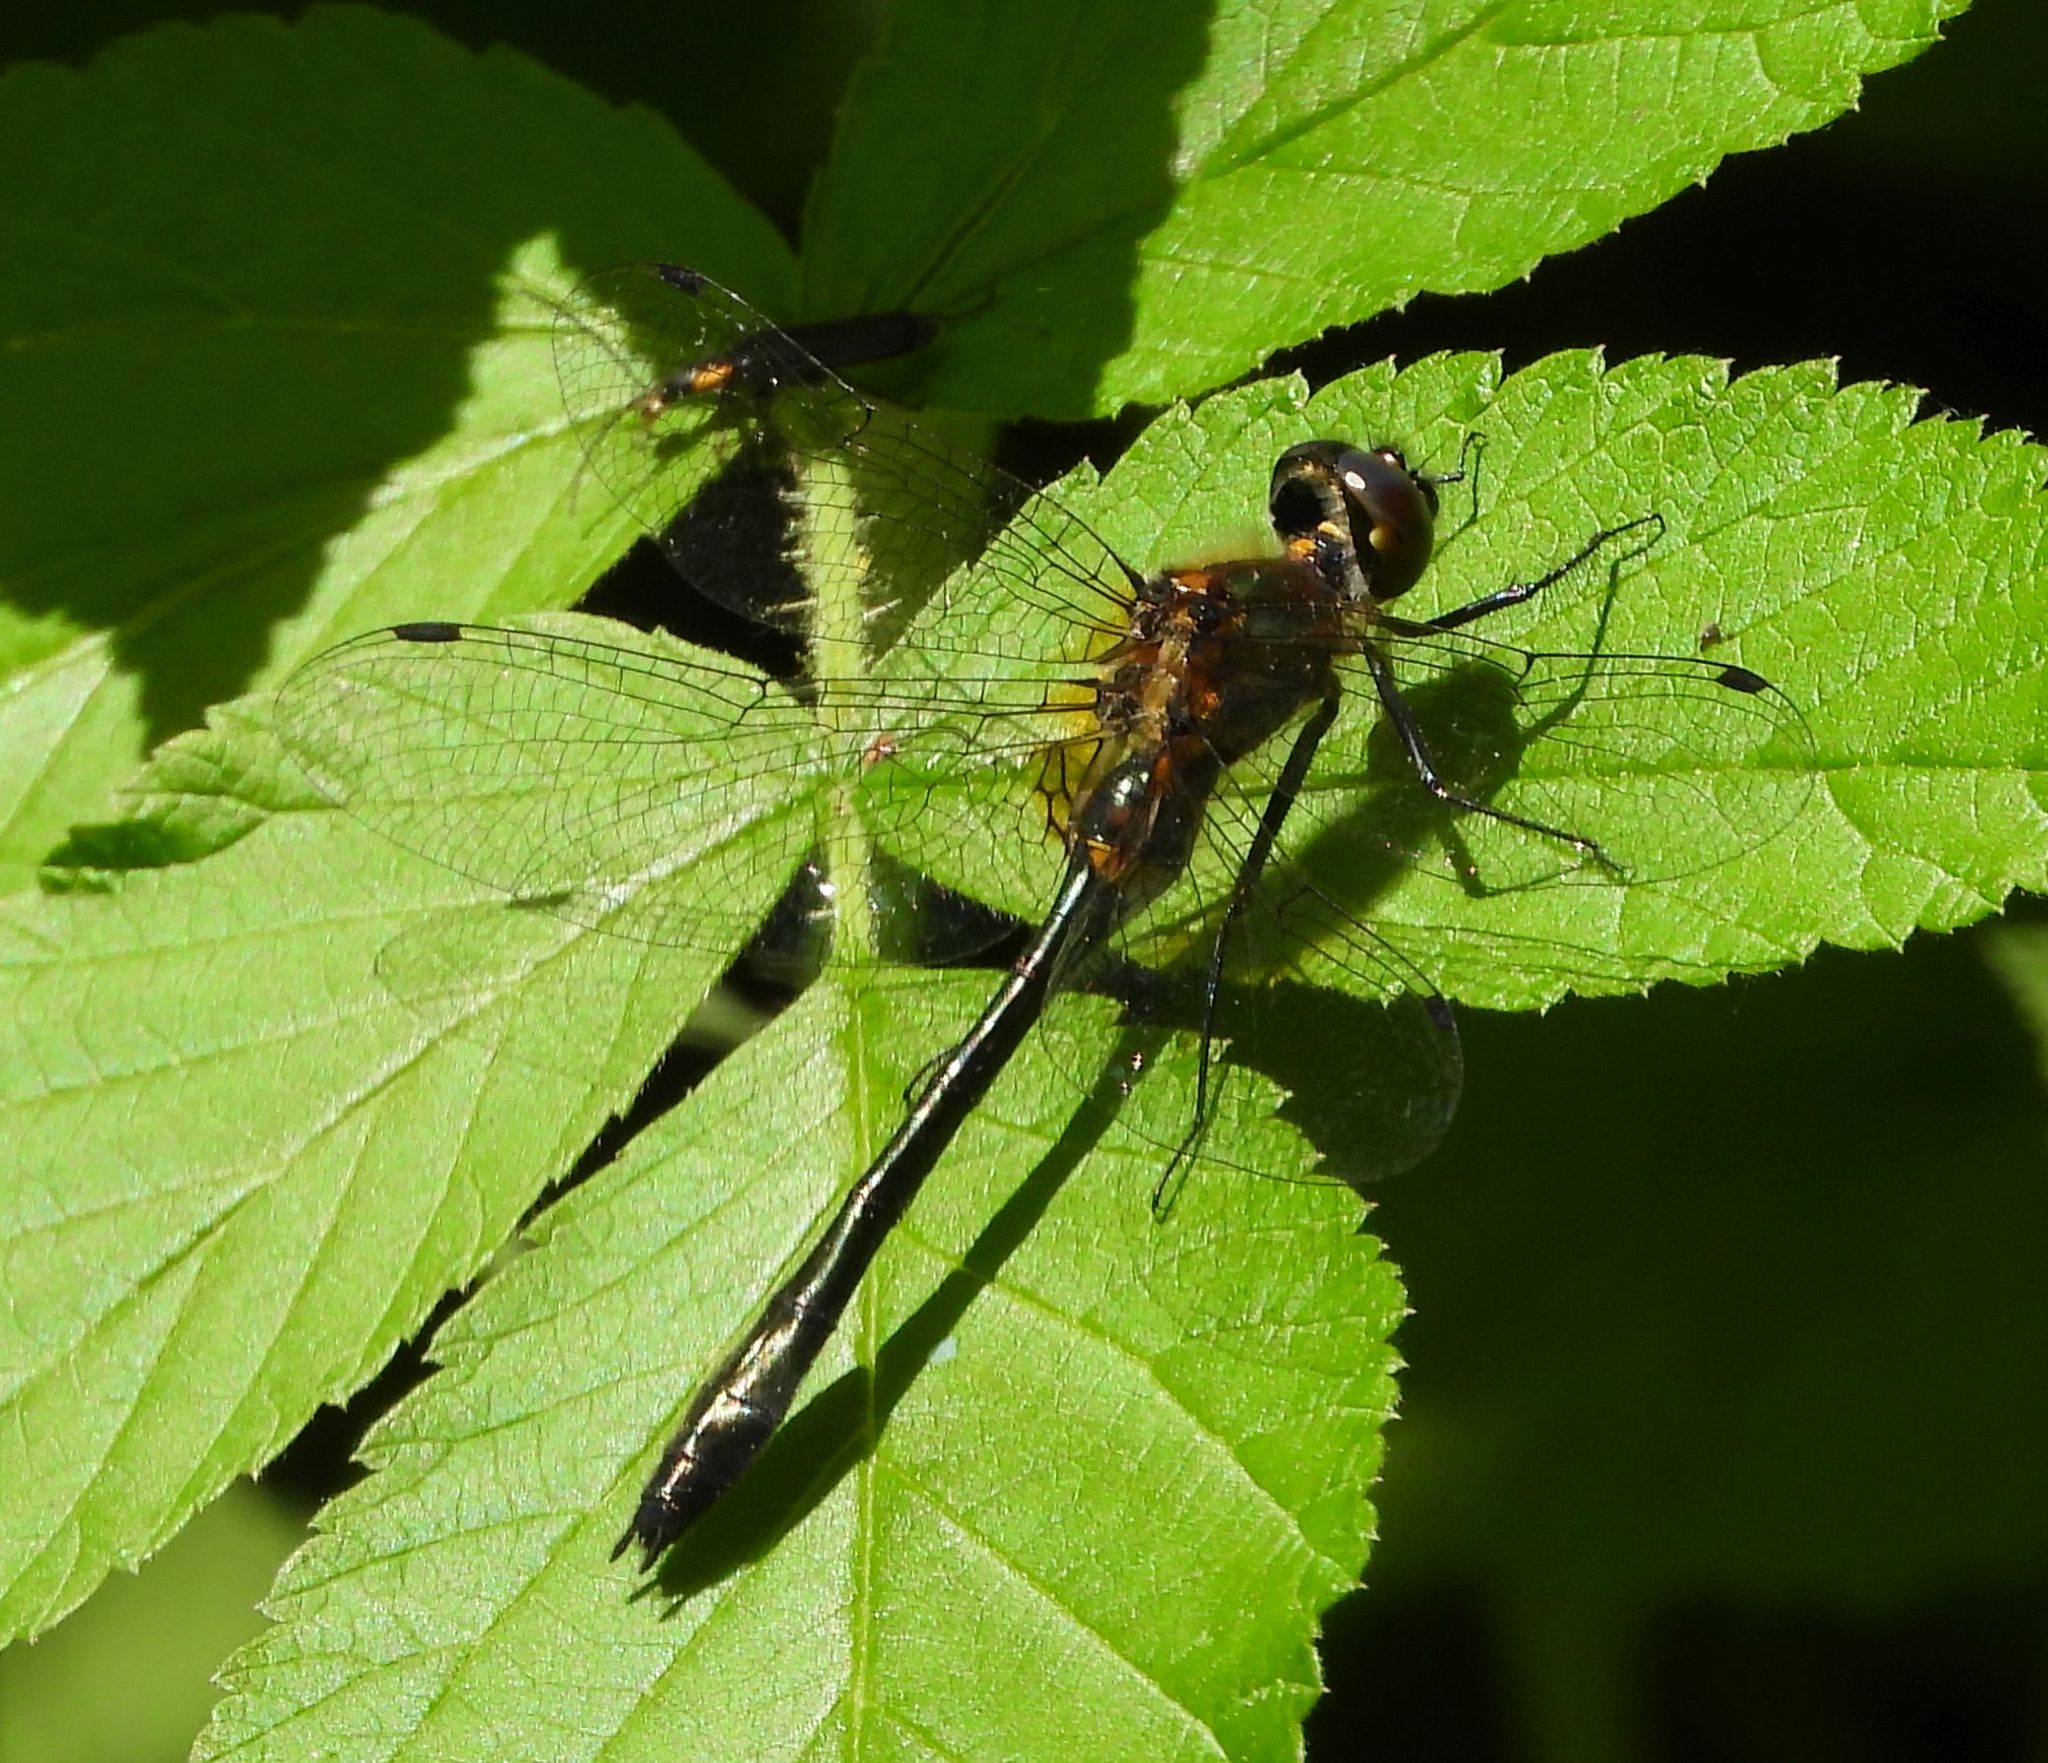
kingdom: Animalia
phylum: Arthropoda
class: Insecta
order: Odonata
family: Corduliidae
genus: Dorocordulia
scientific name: Dorocordulia libera
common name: Racket-tailed emerald
